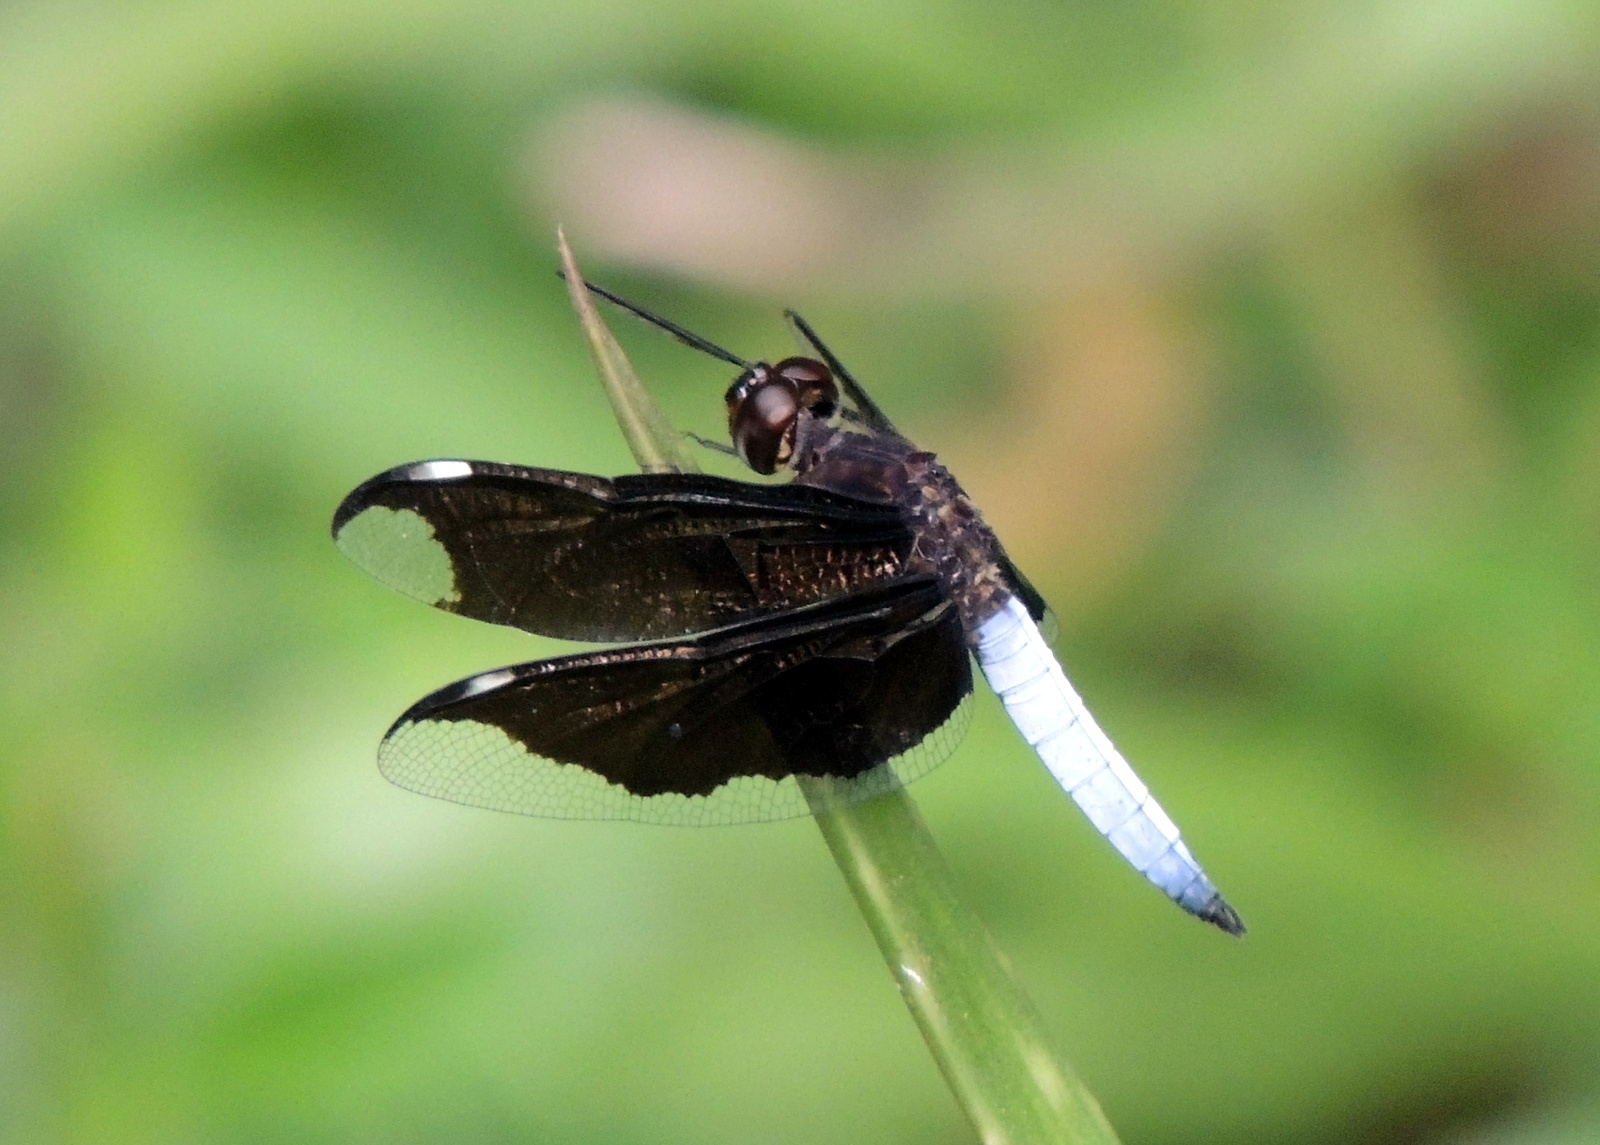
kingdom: Animalia
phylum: Arthropoda
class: Insecta
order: Odonata
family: Libellulidae
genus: Palpopleura
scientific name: Palpopleura lucia
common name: Lucia widow
